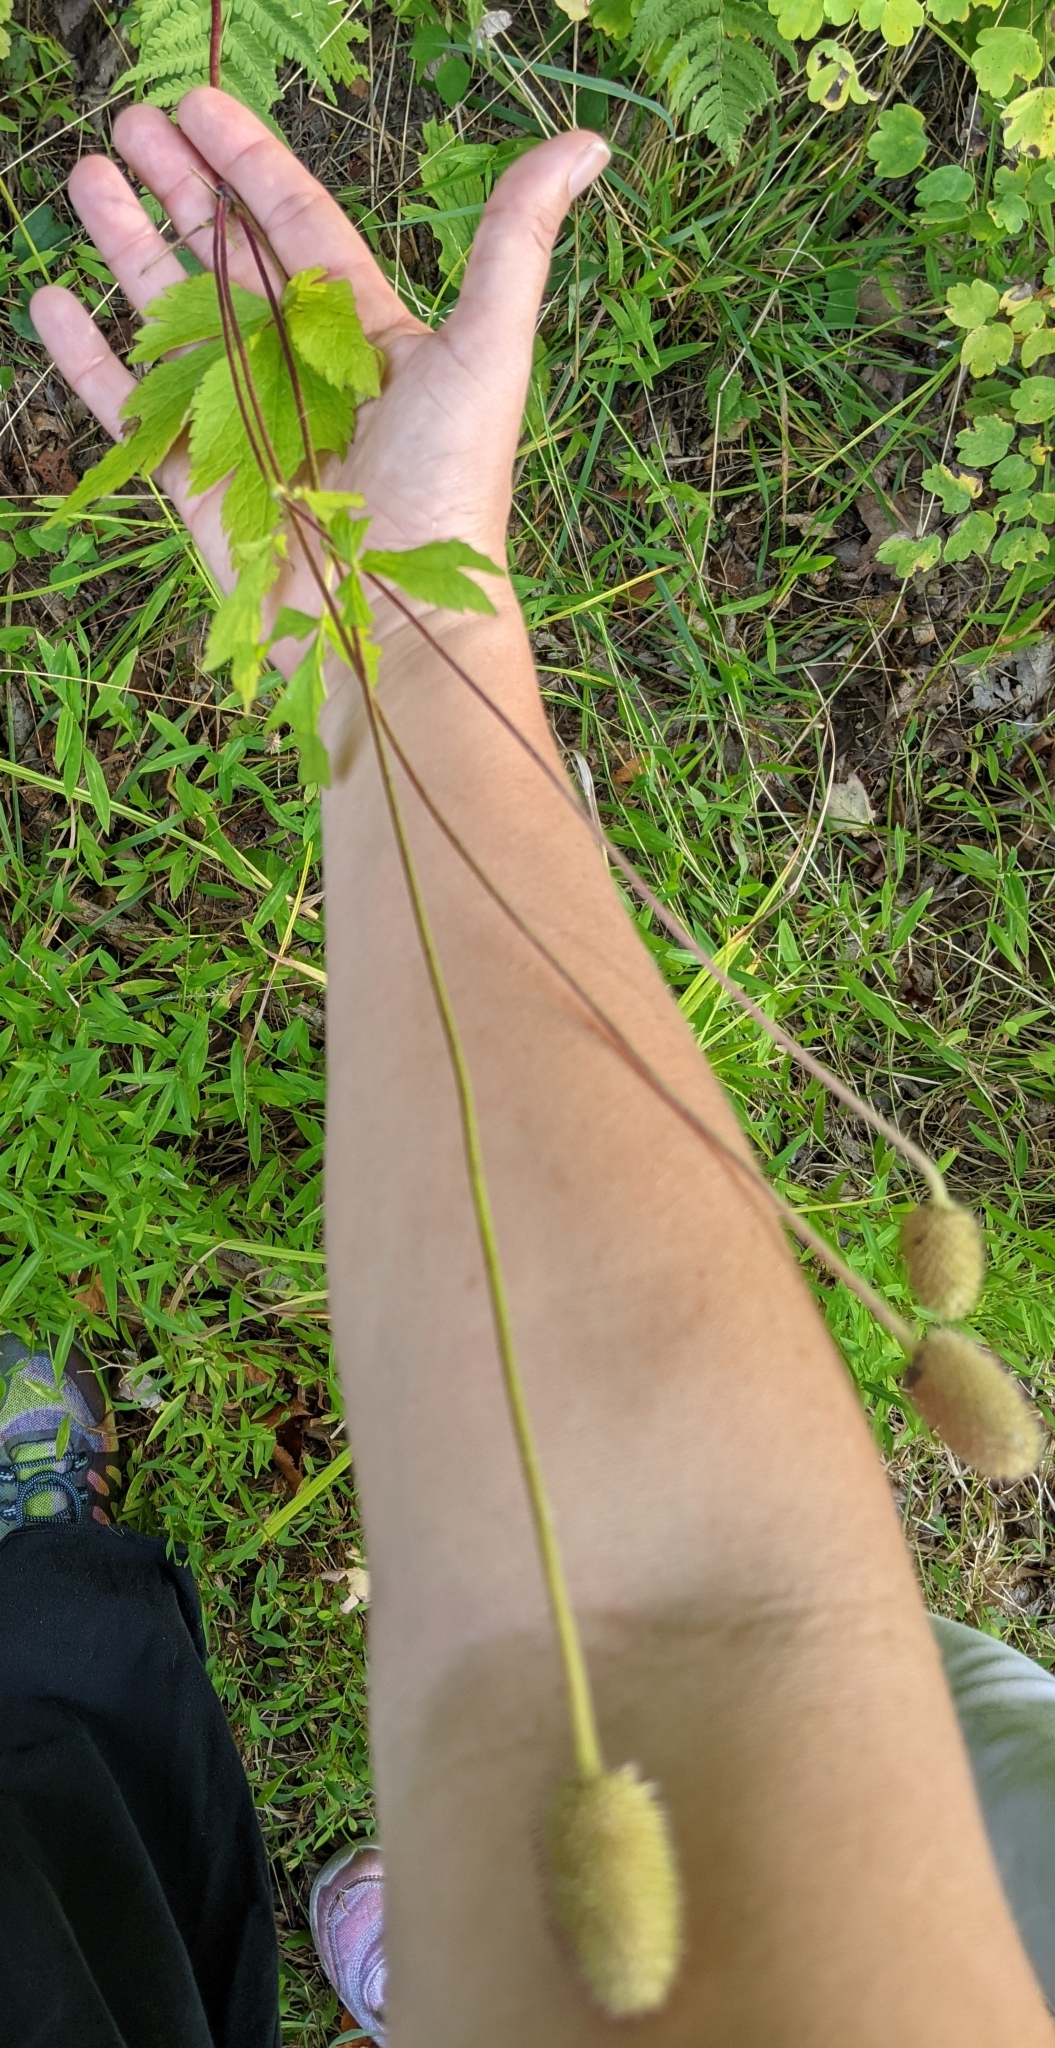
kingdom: Plantae
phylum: Tracheophyta
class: Magnoliopsida
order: Ranunculales
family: Ranunculaceae
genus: Anemone
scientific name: Anemone virginiana
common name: Tall anemone
